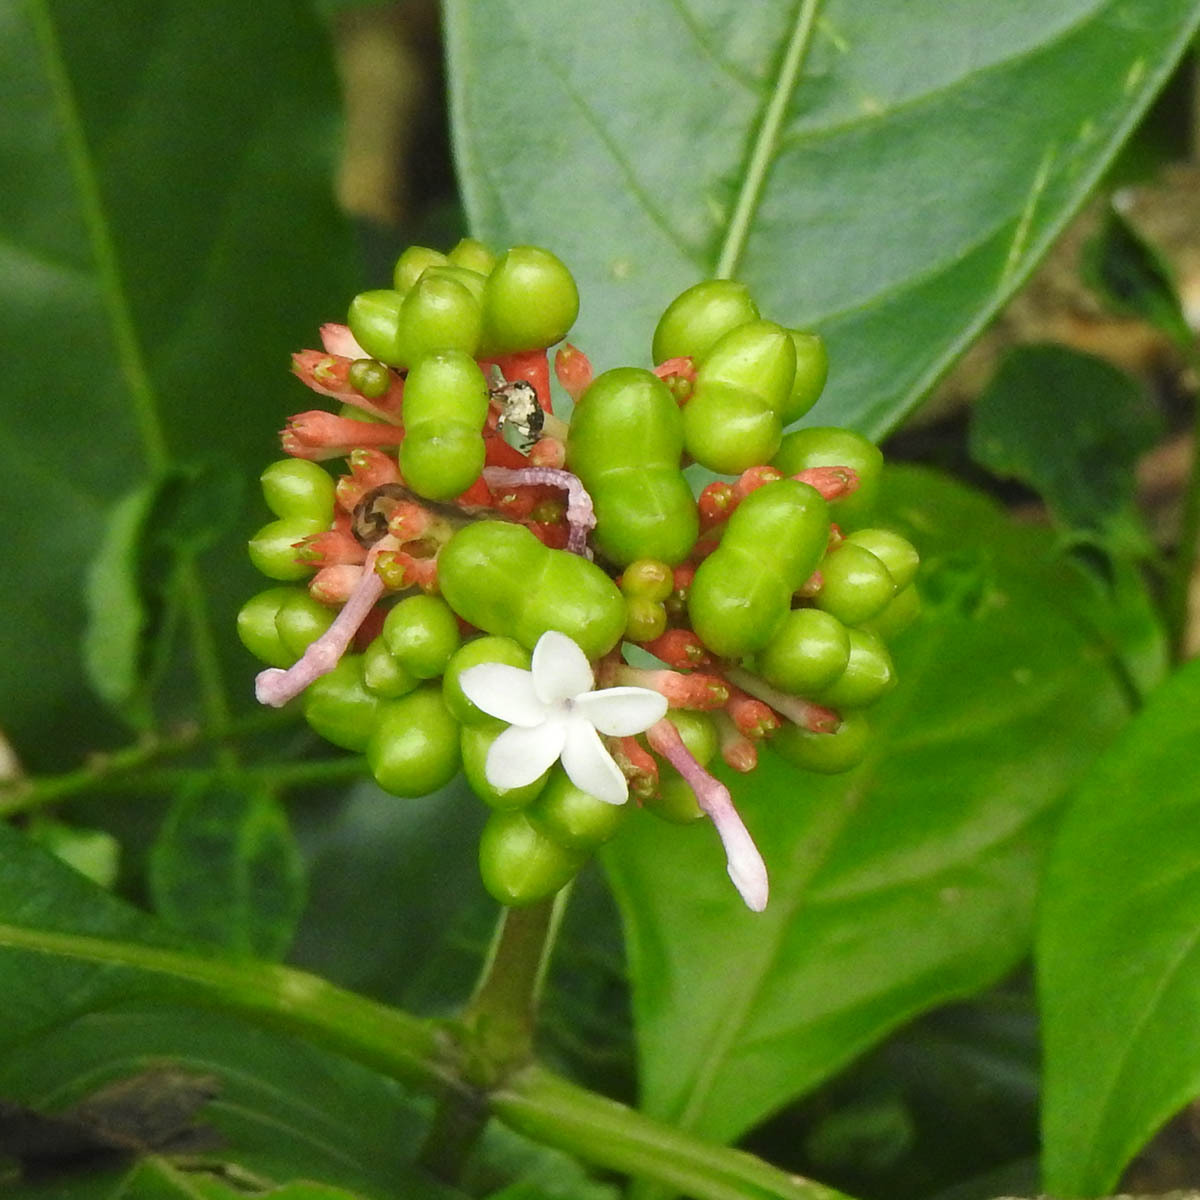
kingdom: Plantae
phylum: Tracheophyta
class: Magnoliopsida
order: Gentianales
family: Apocynaceae
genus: Rauvolfia
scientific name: Rauvolfia serpentina
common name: Ajmaline
